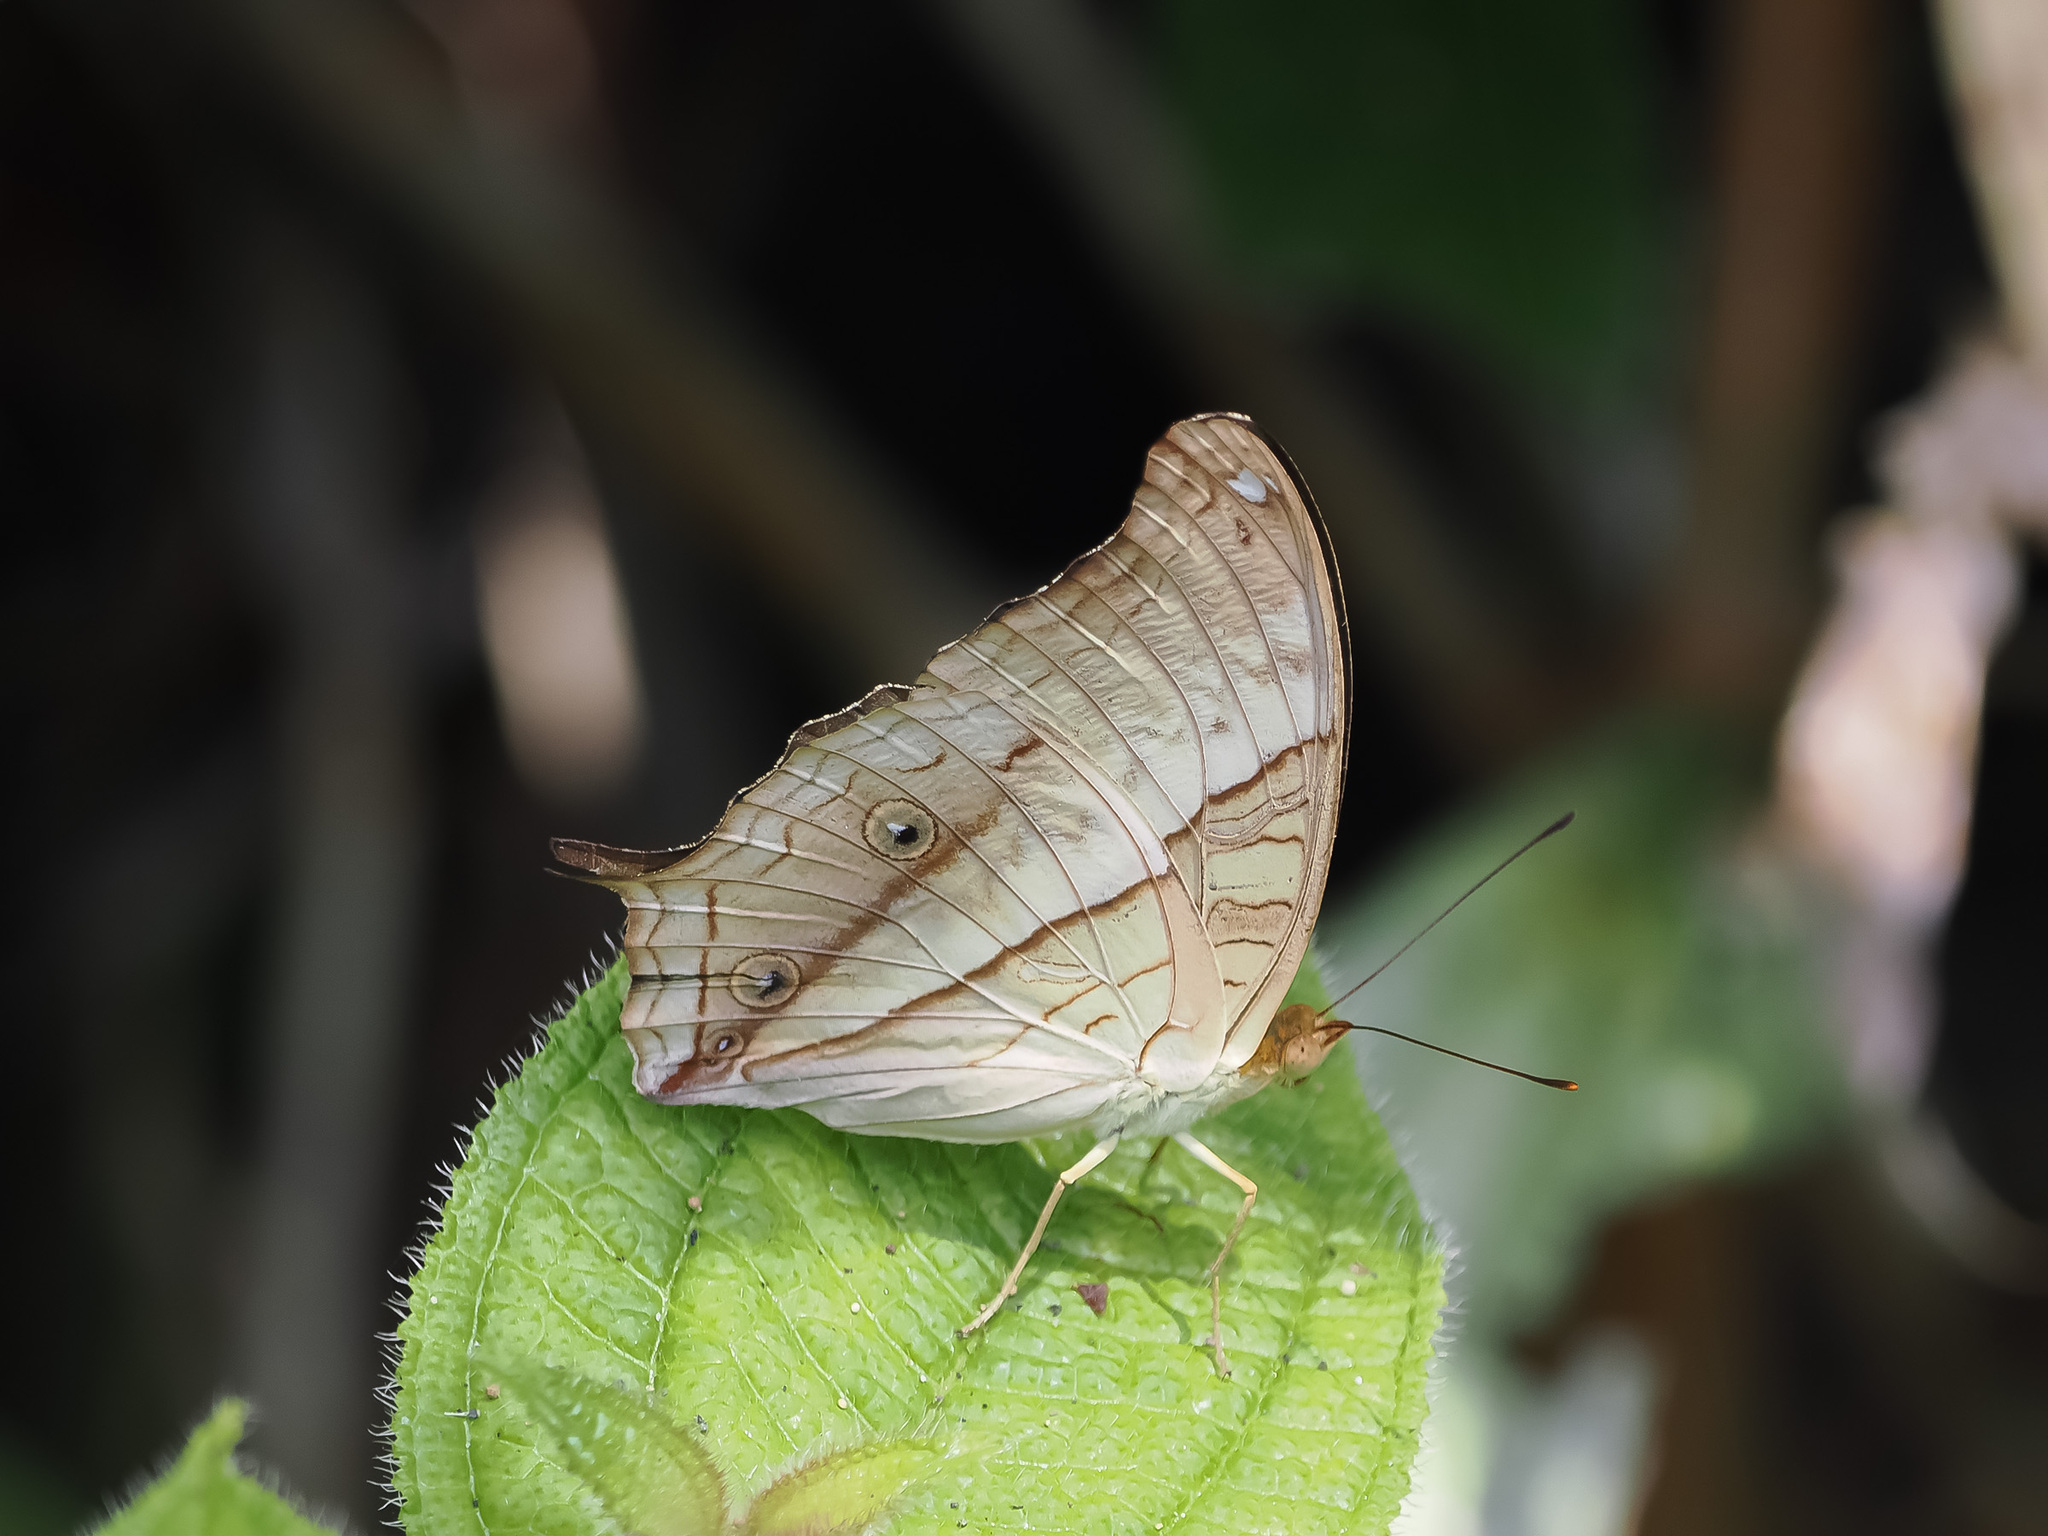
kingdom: Animalia
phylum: Arthropoda
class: Insecta
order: Lepidoptera
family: Nymphalidae
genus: Vindula
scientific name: Vindula deione
